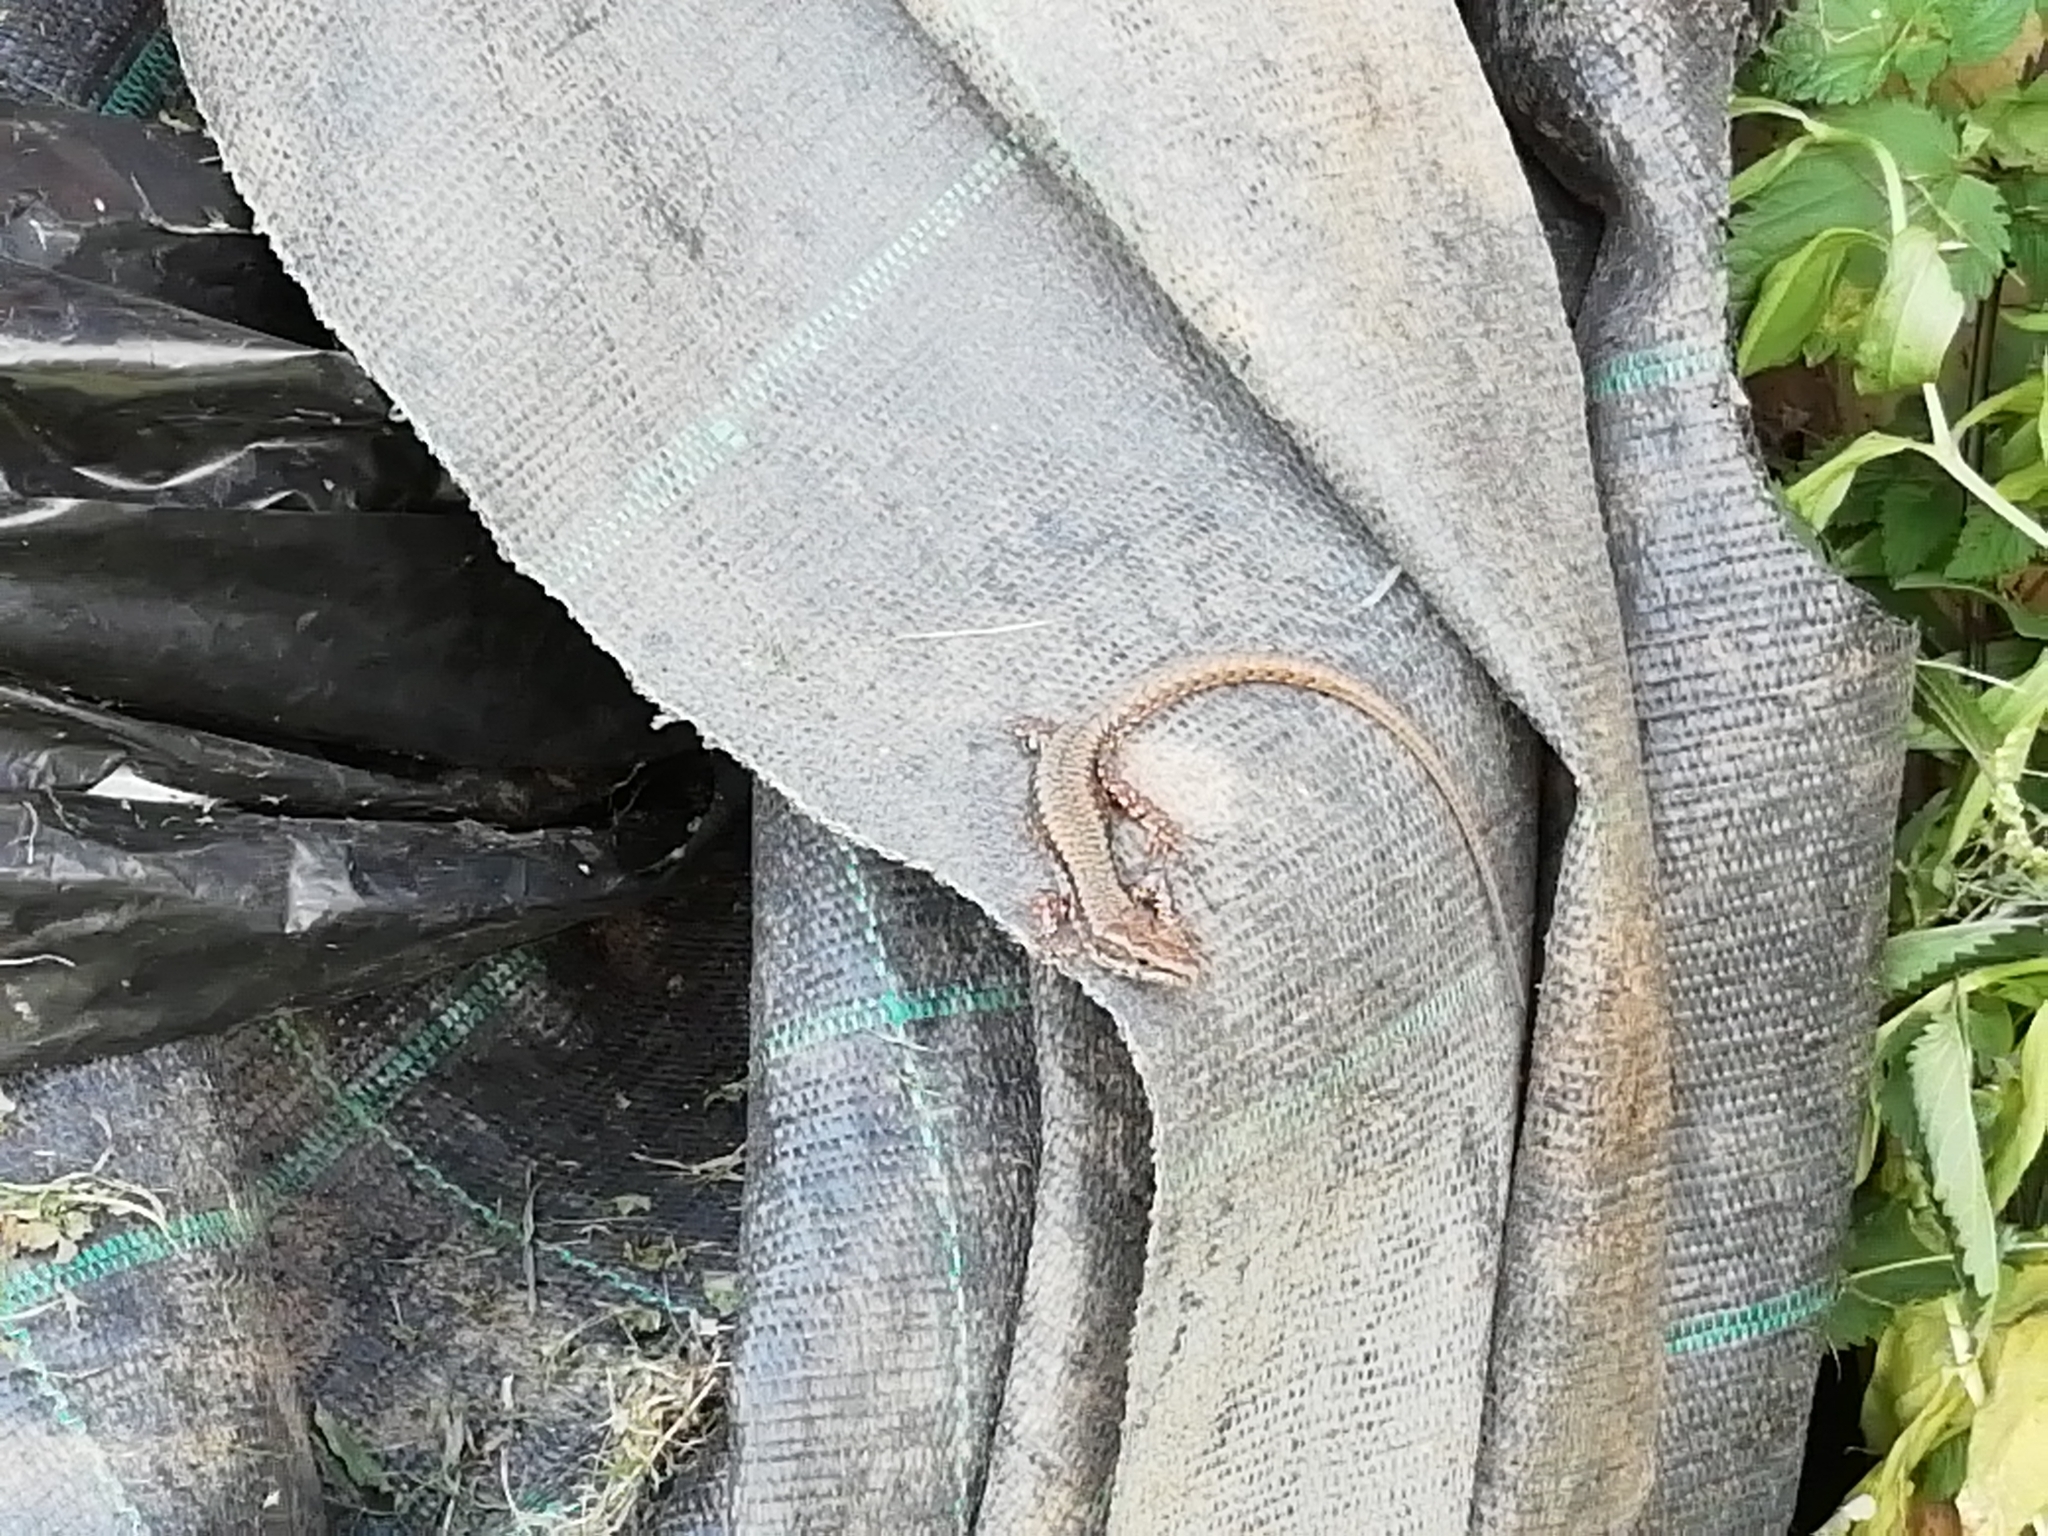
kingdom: Animalia
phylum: Chordata
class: Squamata
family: Lacertidae
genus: Podarcis
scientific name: Podarcis muralis
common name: Common wall lizard
